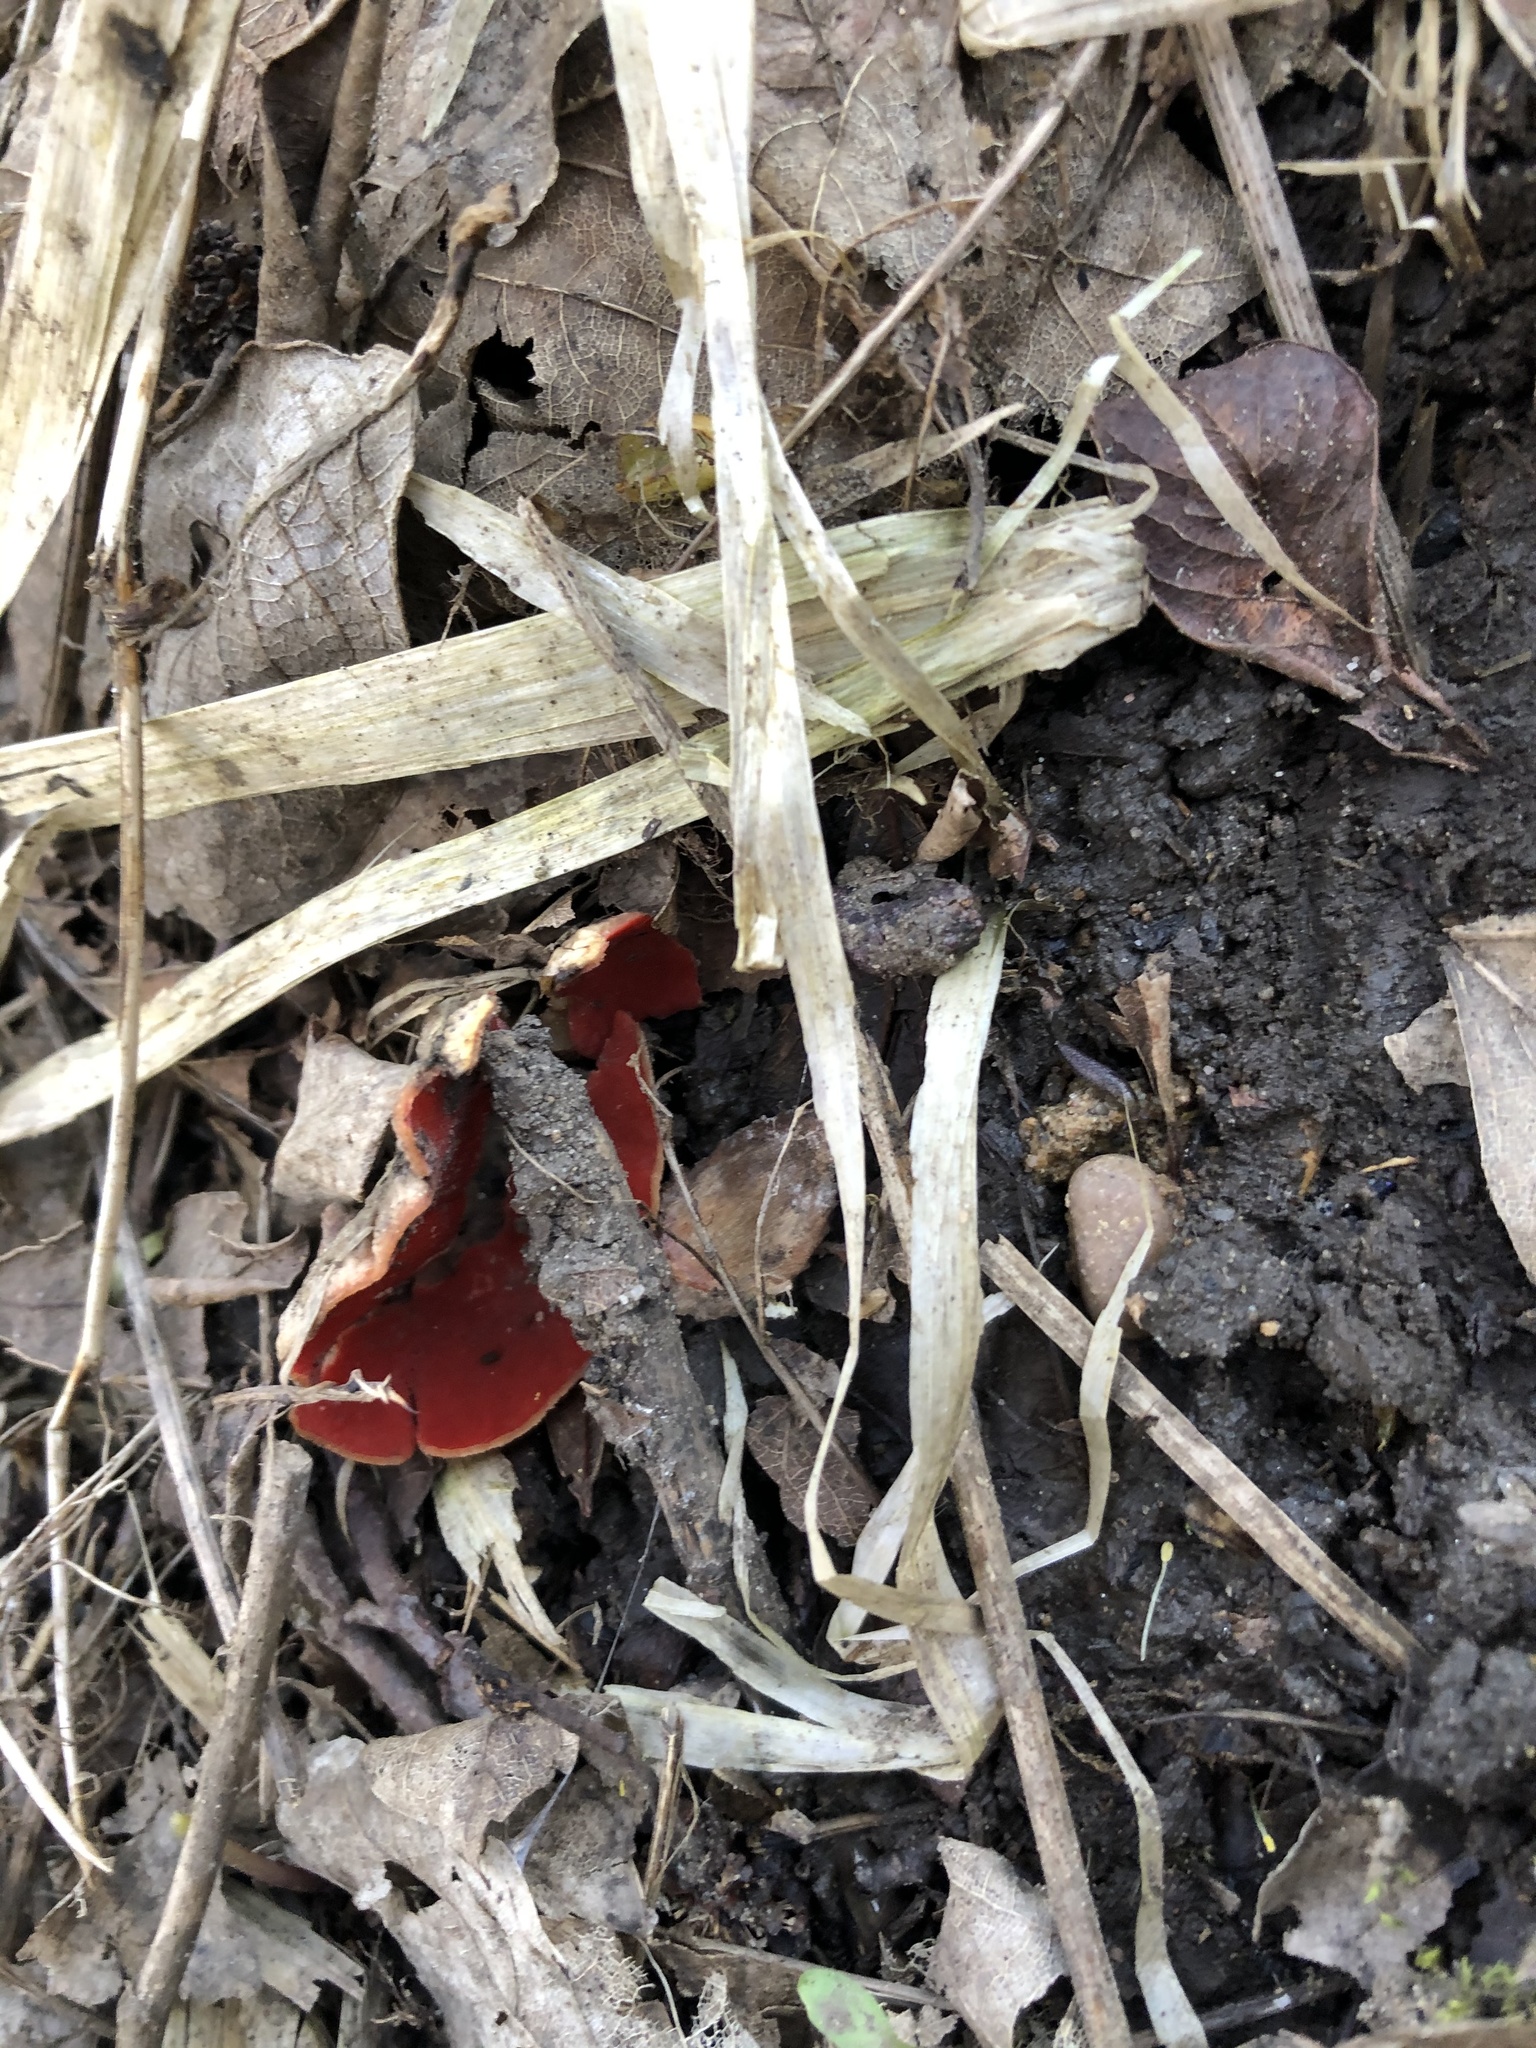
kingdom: Fungi
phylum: Ascomycota
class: Pezizomycetes
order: Pezizales
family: Sarcoscyphaceae
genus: Sarcoscypha
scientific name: Sarcoscypha
